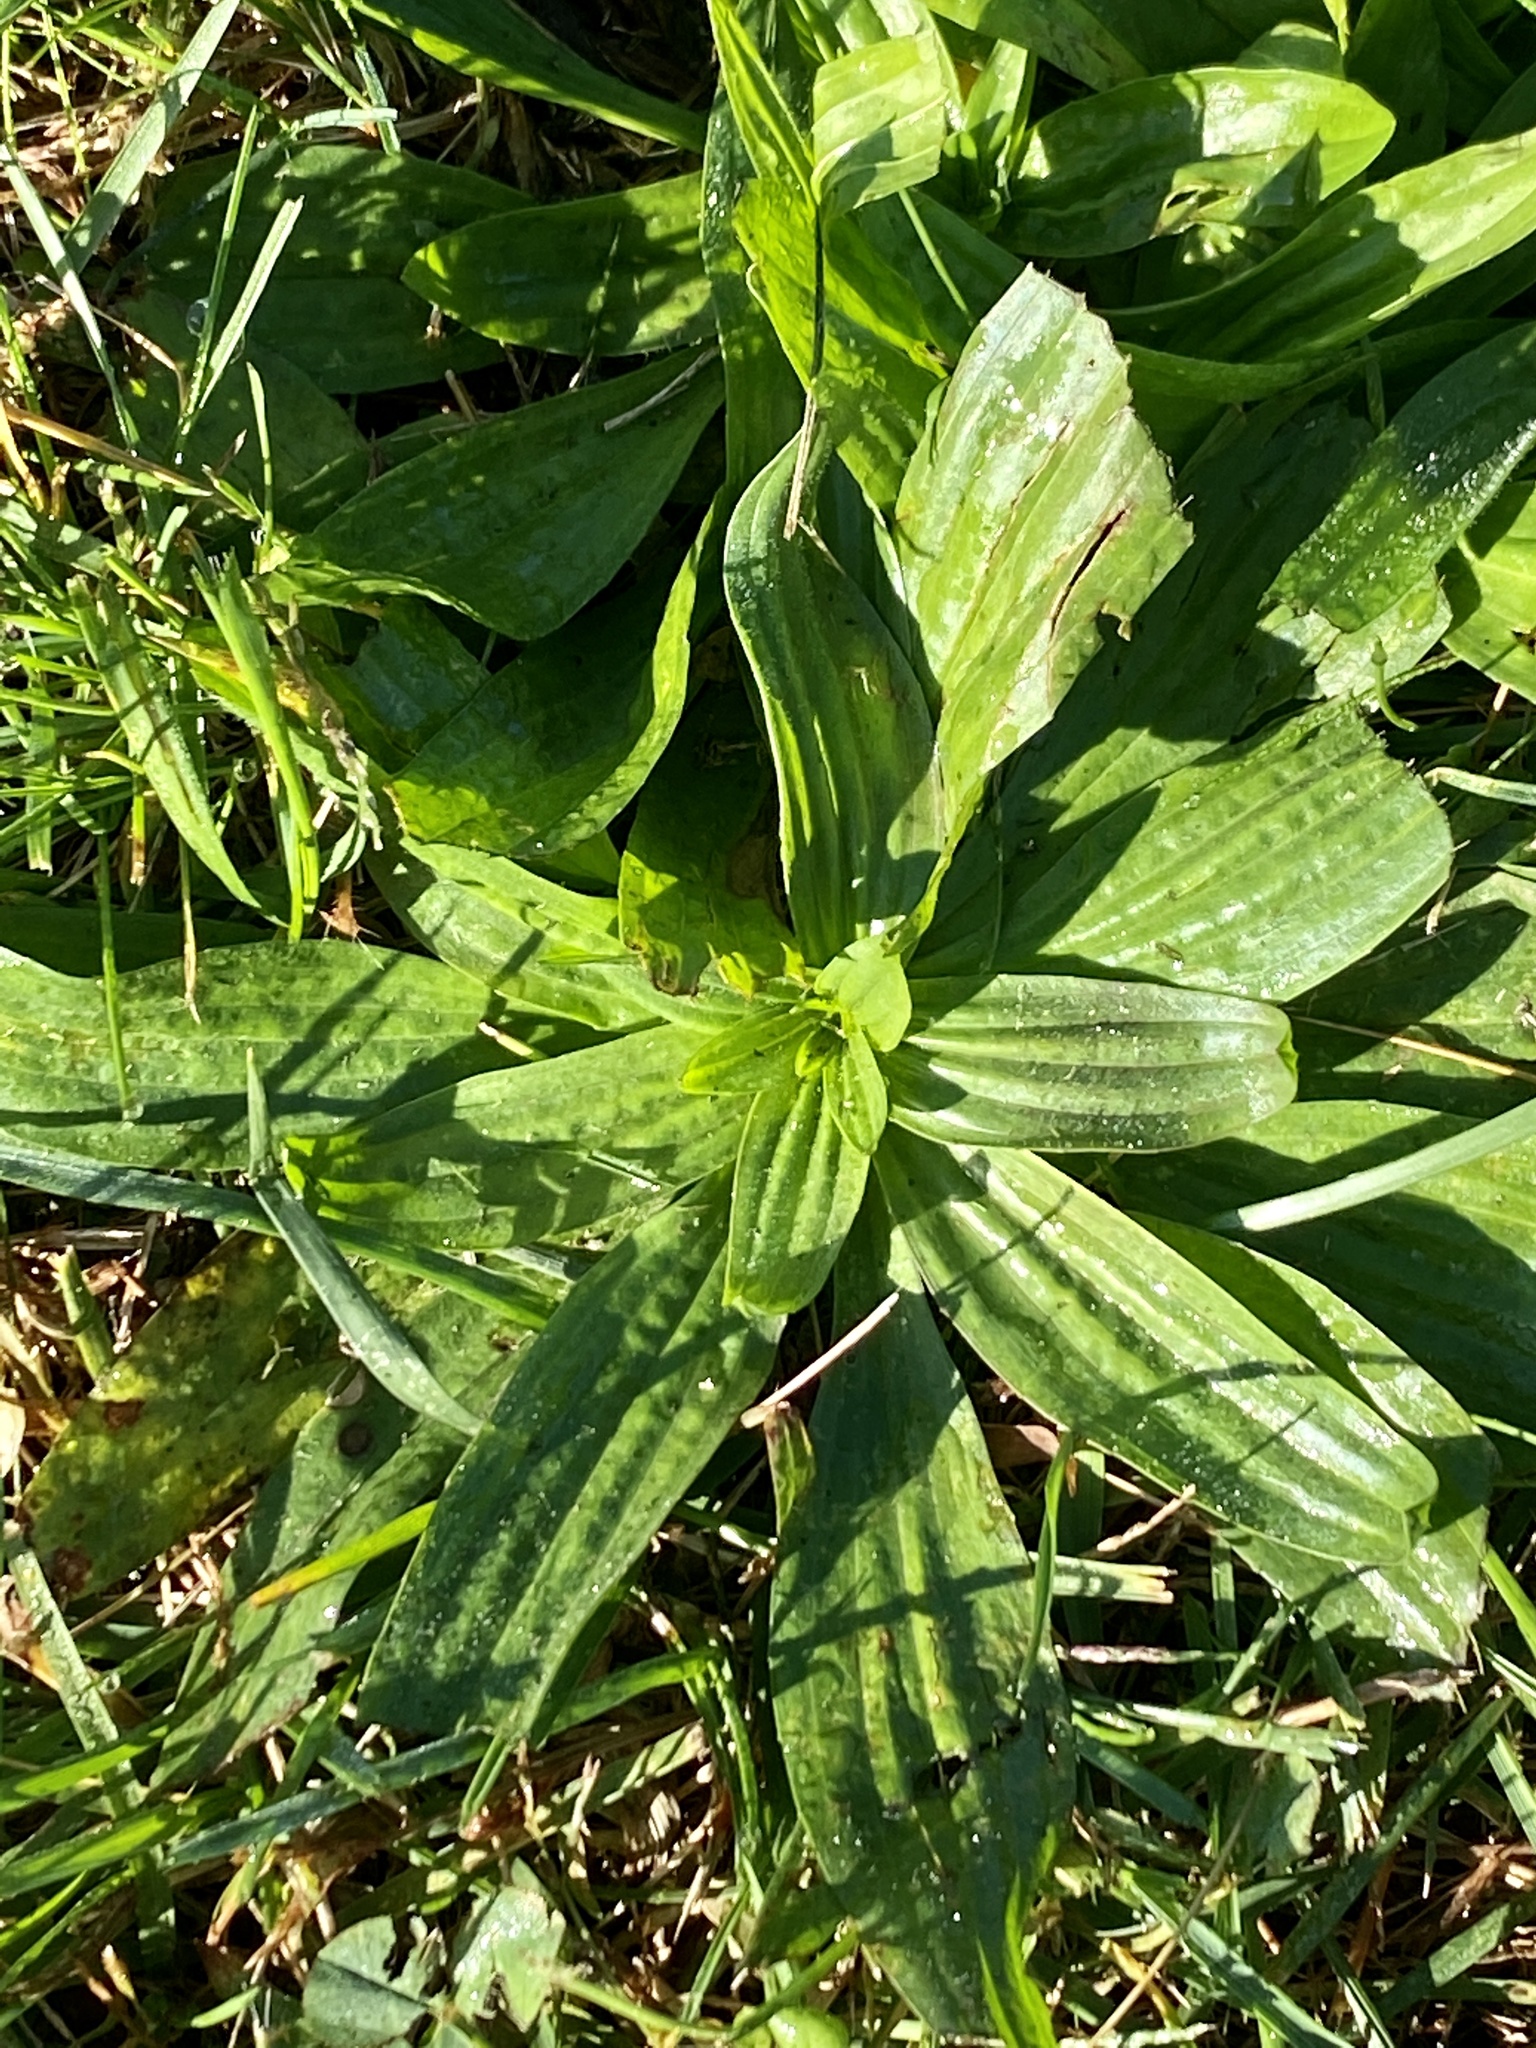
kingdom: Plantae
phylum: Tracheophyta
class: Magnoliopsida
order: Lamiales
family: Plantaginaceae
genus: Plantago
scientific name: Plantago lanceolata
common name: Ribwort plantain
